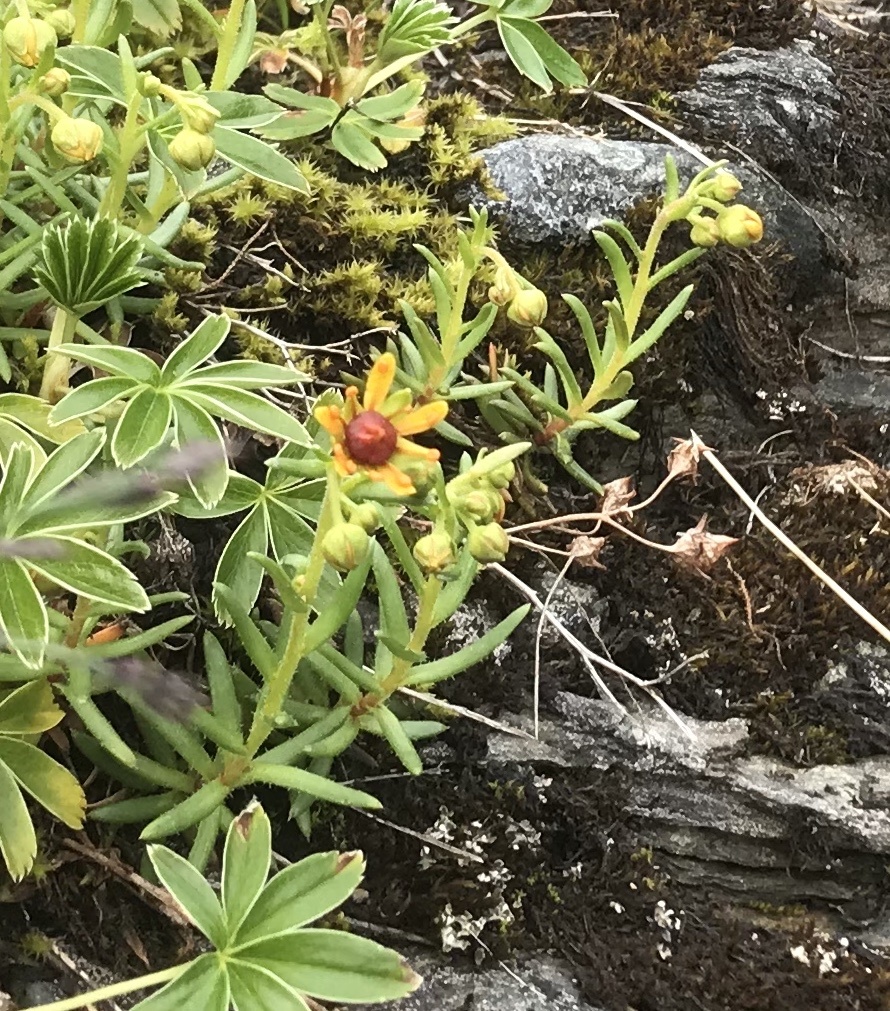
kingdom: Plantae
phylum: Tracheophyta
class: Magnoliopsida
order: Saxifragales
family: Saxifragaceae
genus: Saxifraga
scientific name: Saxifraga aizoides
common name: Yellow mountain saxifrage
